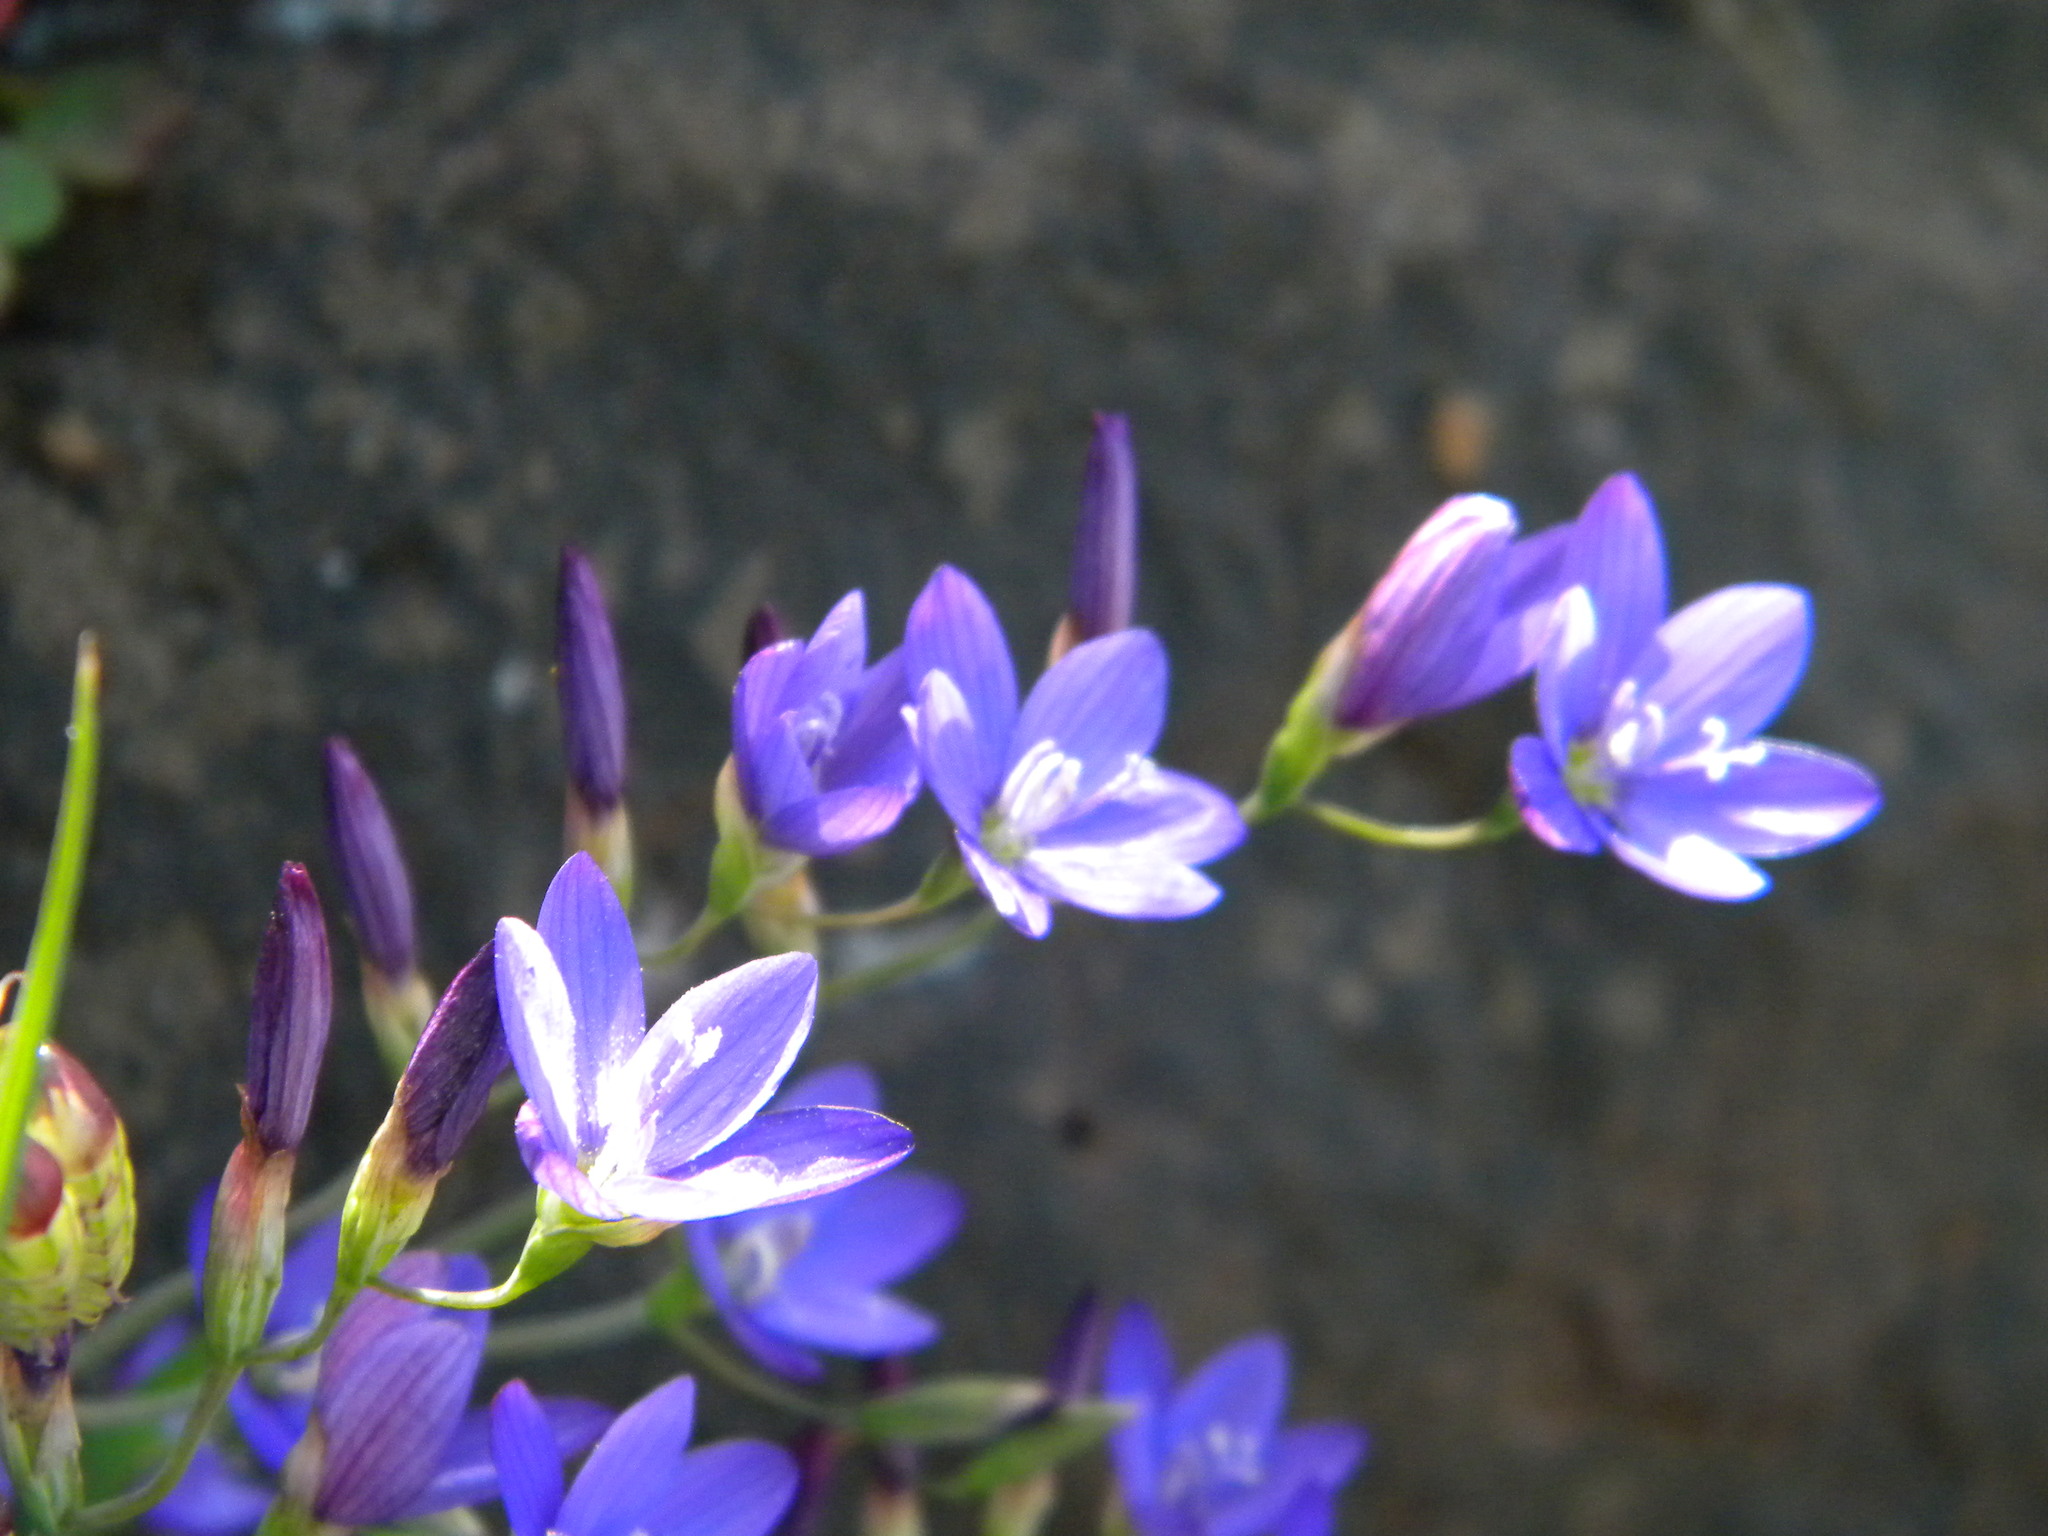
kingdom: Plantae
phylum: Tracheophyta
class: Liliopsida
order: Asparagales
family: Iridaceae
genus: Geissorhiza
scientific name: Geissorhiza aspera
